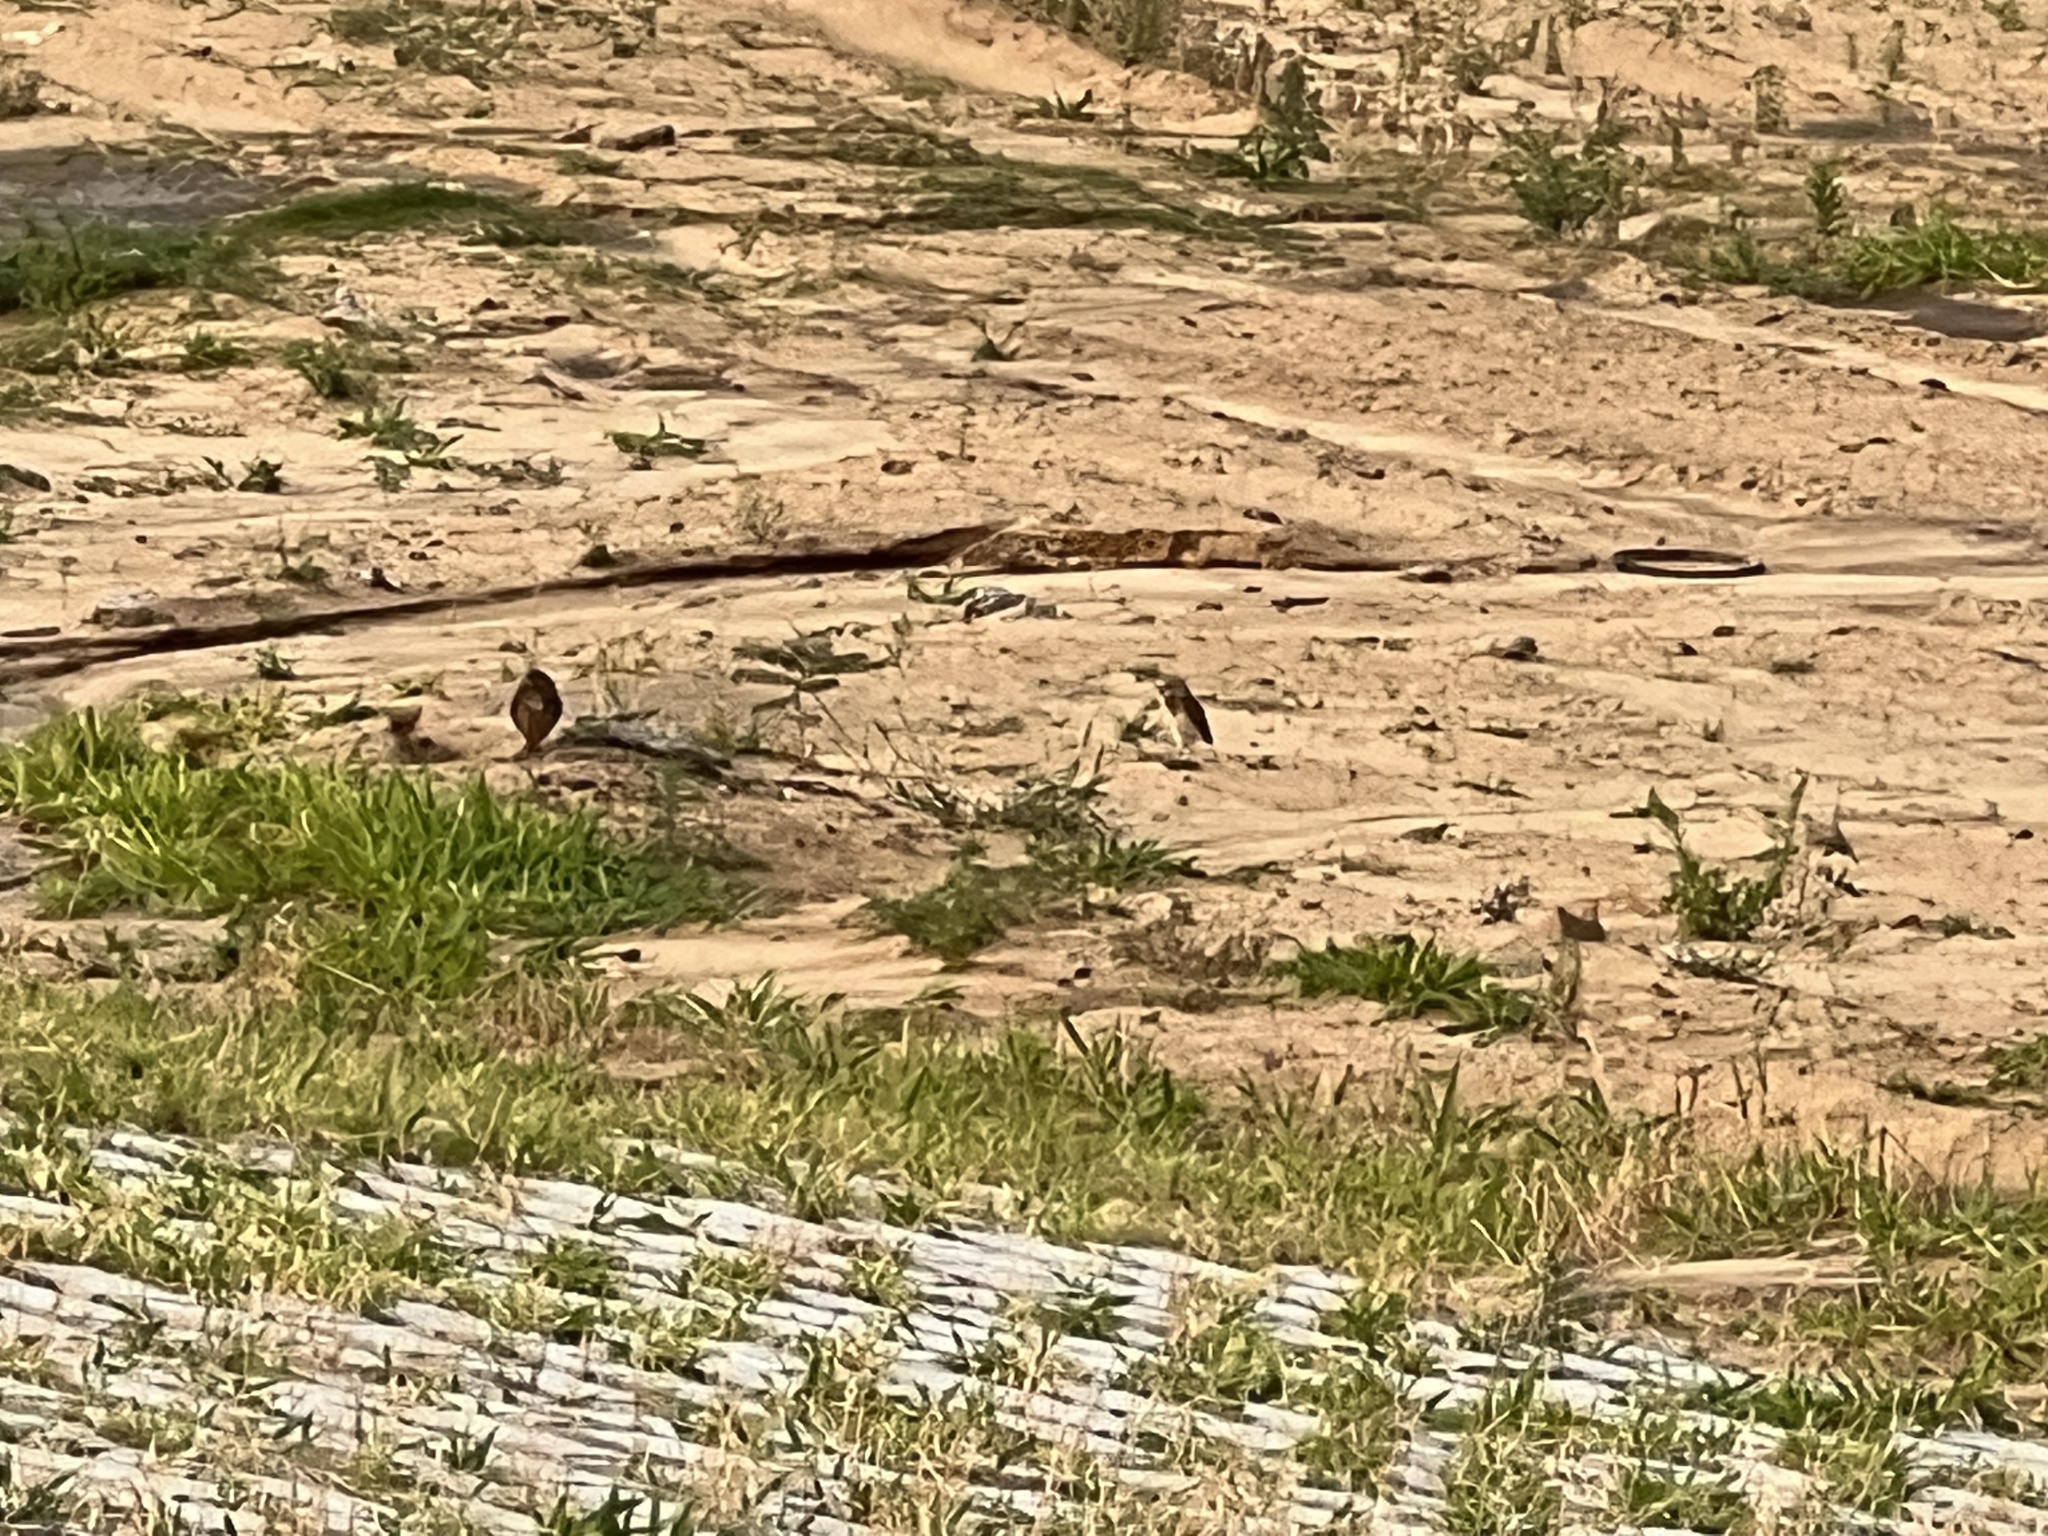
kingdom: Animalia
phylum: Chordata
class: Aves
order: Strigiformes
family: Strigidae
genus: Athene
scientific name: Athene cunicularia
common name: Burrowing owl
